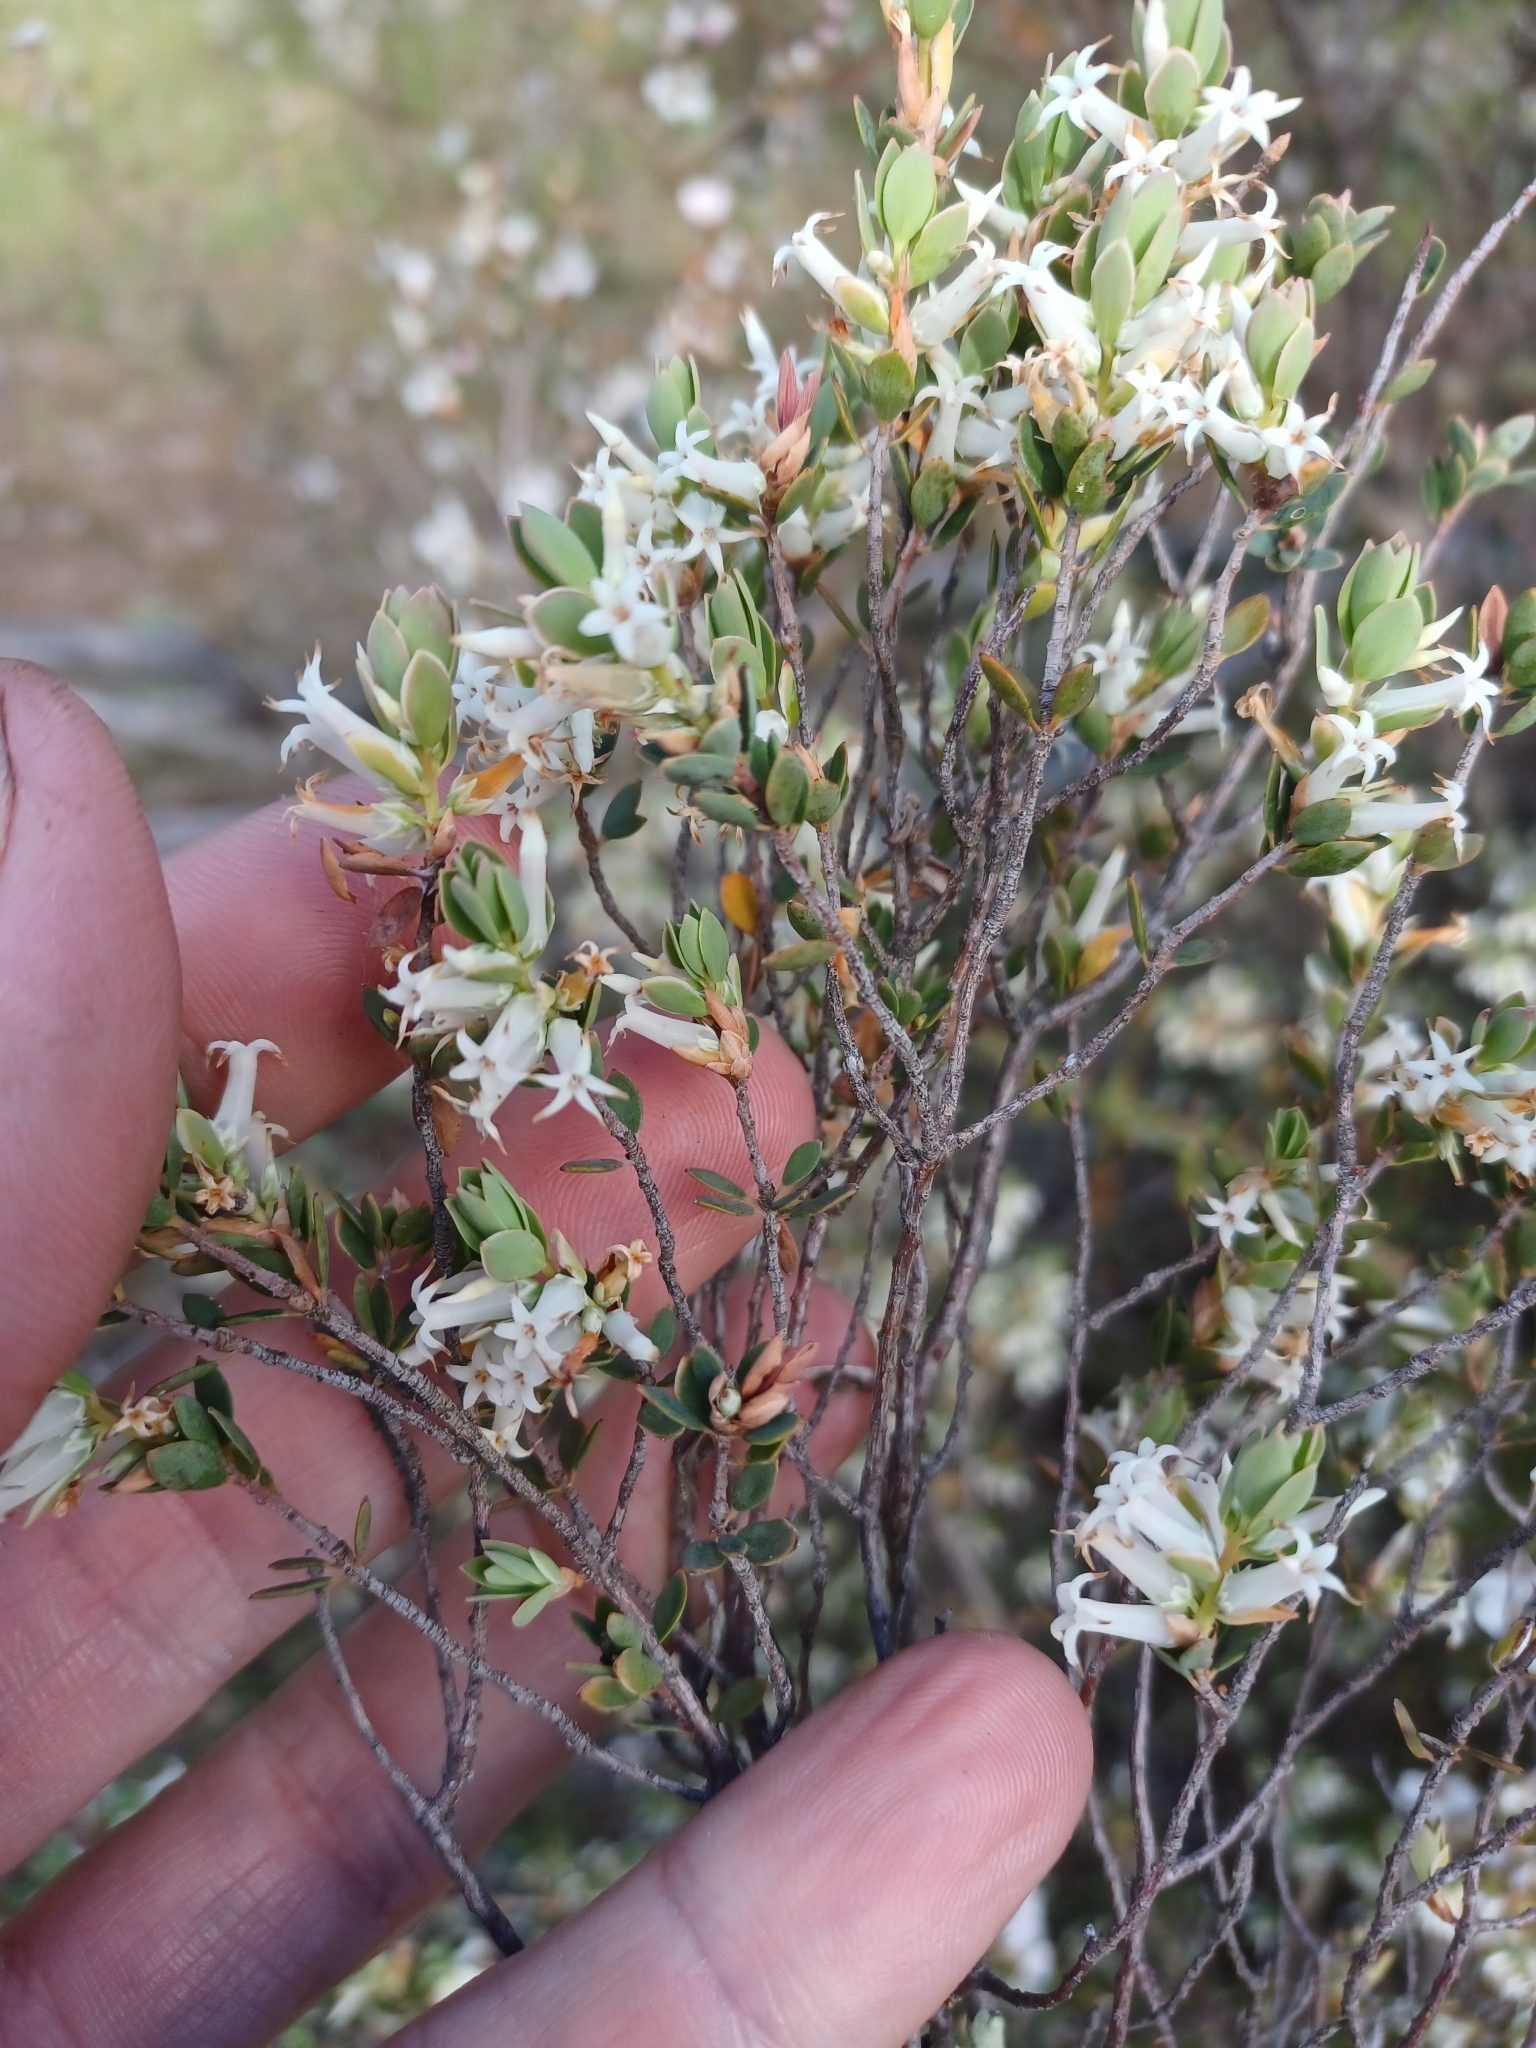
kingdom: Plantae
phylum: Tracheophyta
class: Magnoliopsida
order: Ericales
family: Ericaceae
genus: Brachyloma
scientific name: Brachyloma daphnoides
